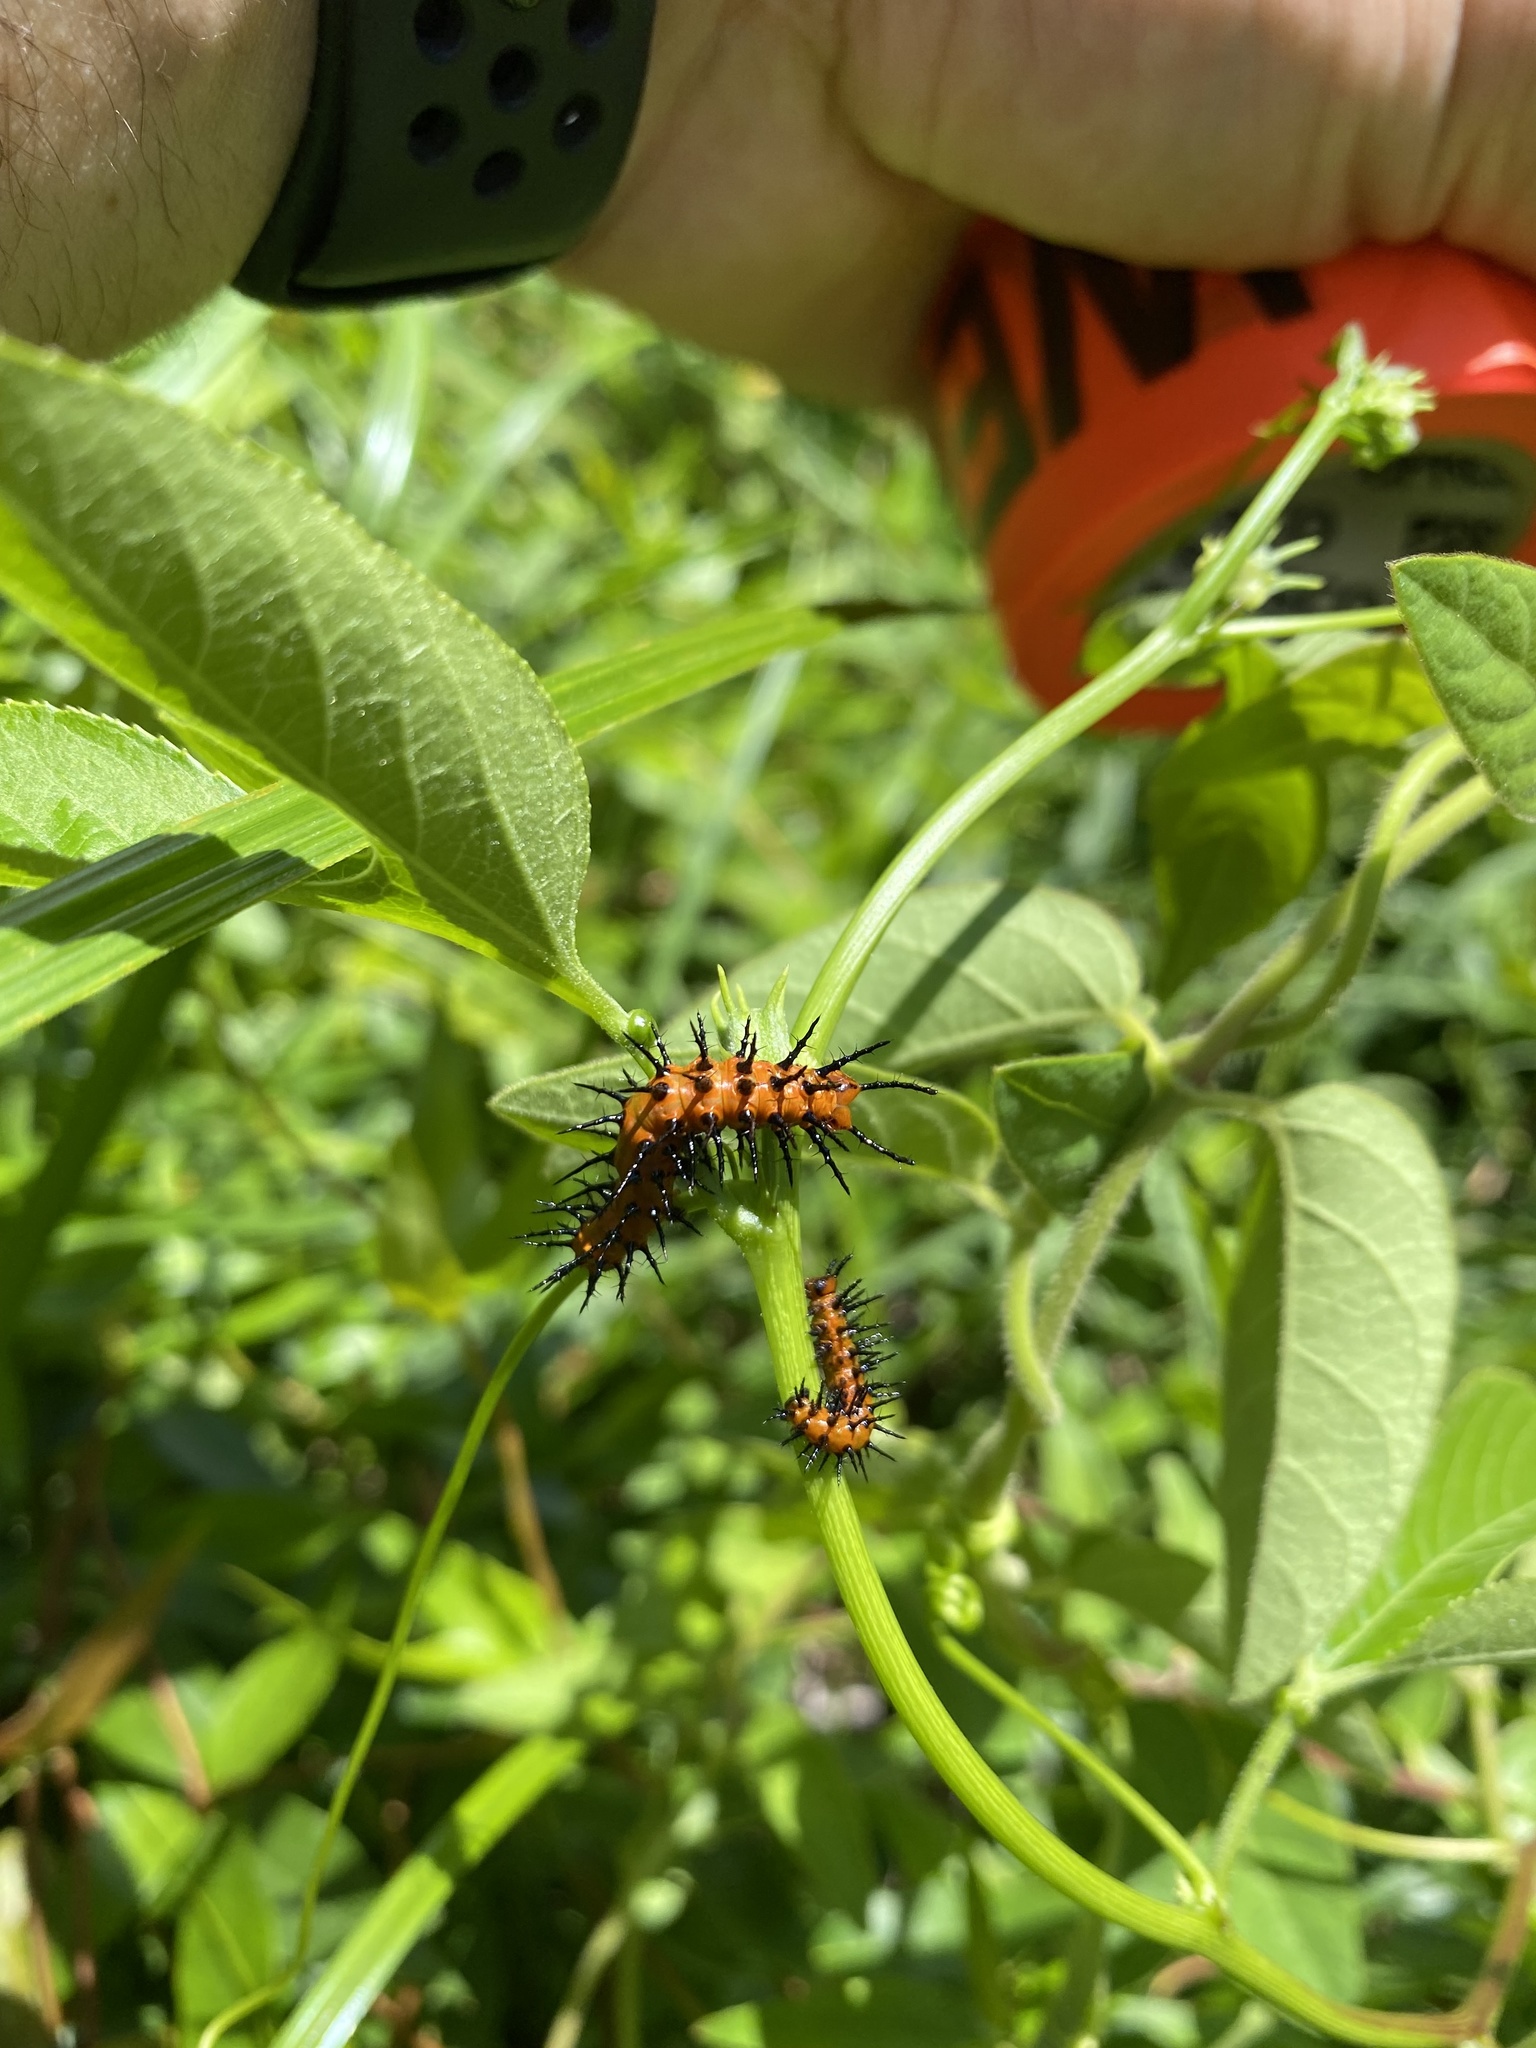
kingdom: Animalia
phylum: Arthropoda
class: Insecta
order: Lepidoptera
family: Nymphalidae
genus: Dione
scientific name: Dione vanillae
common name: Gulf fritillary
